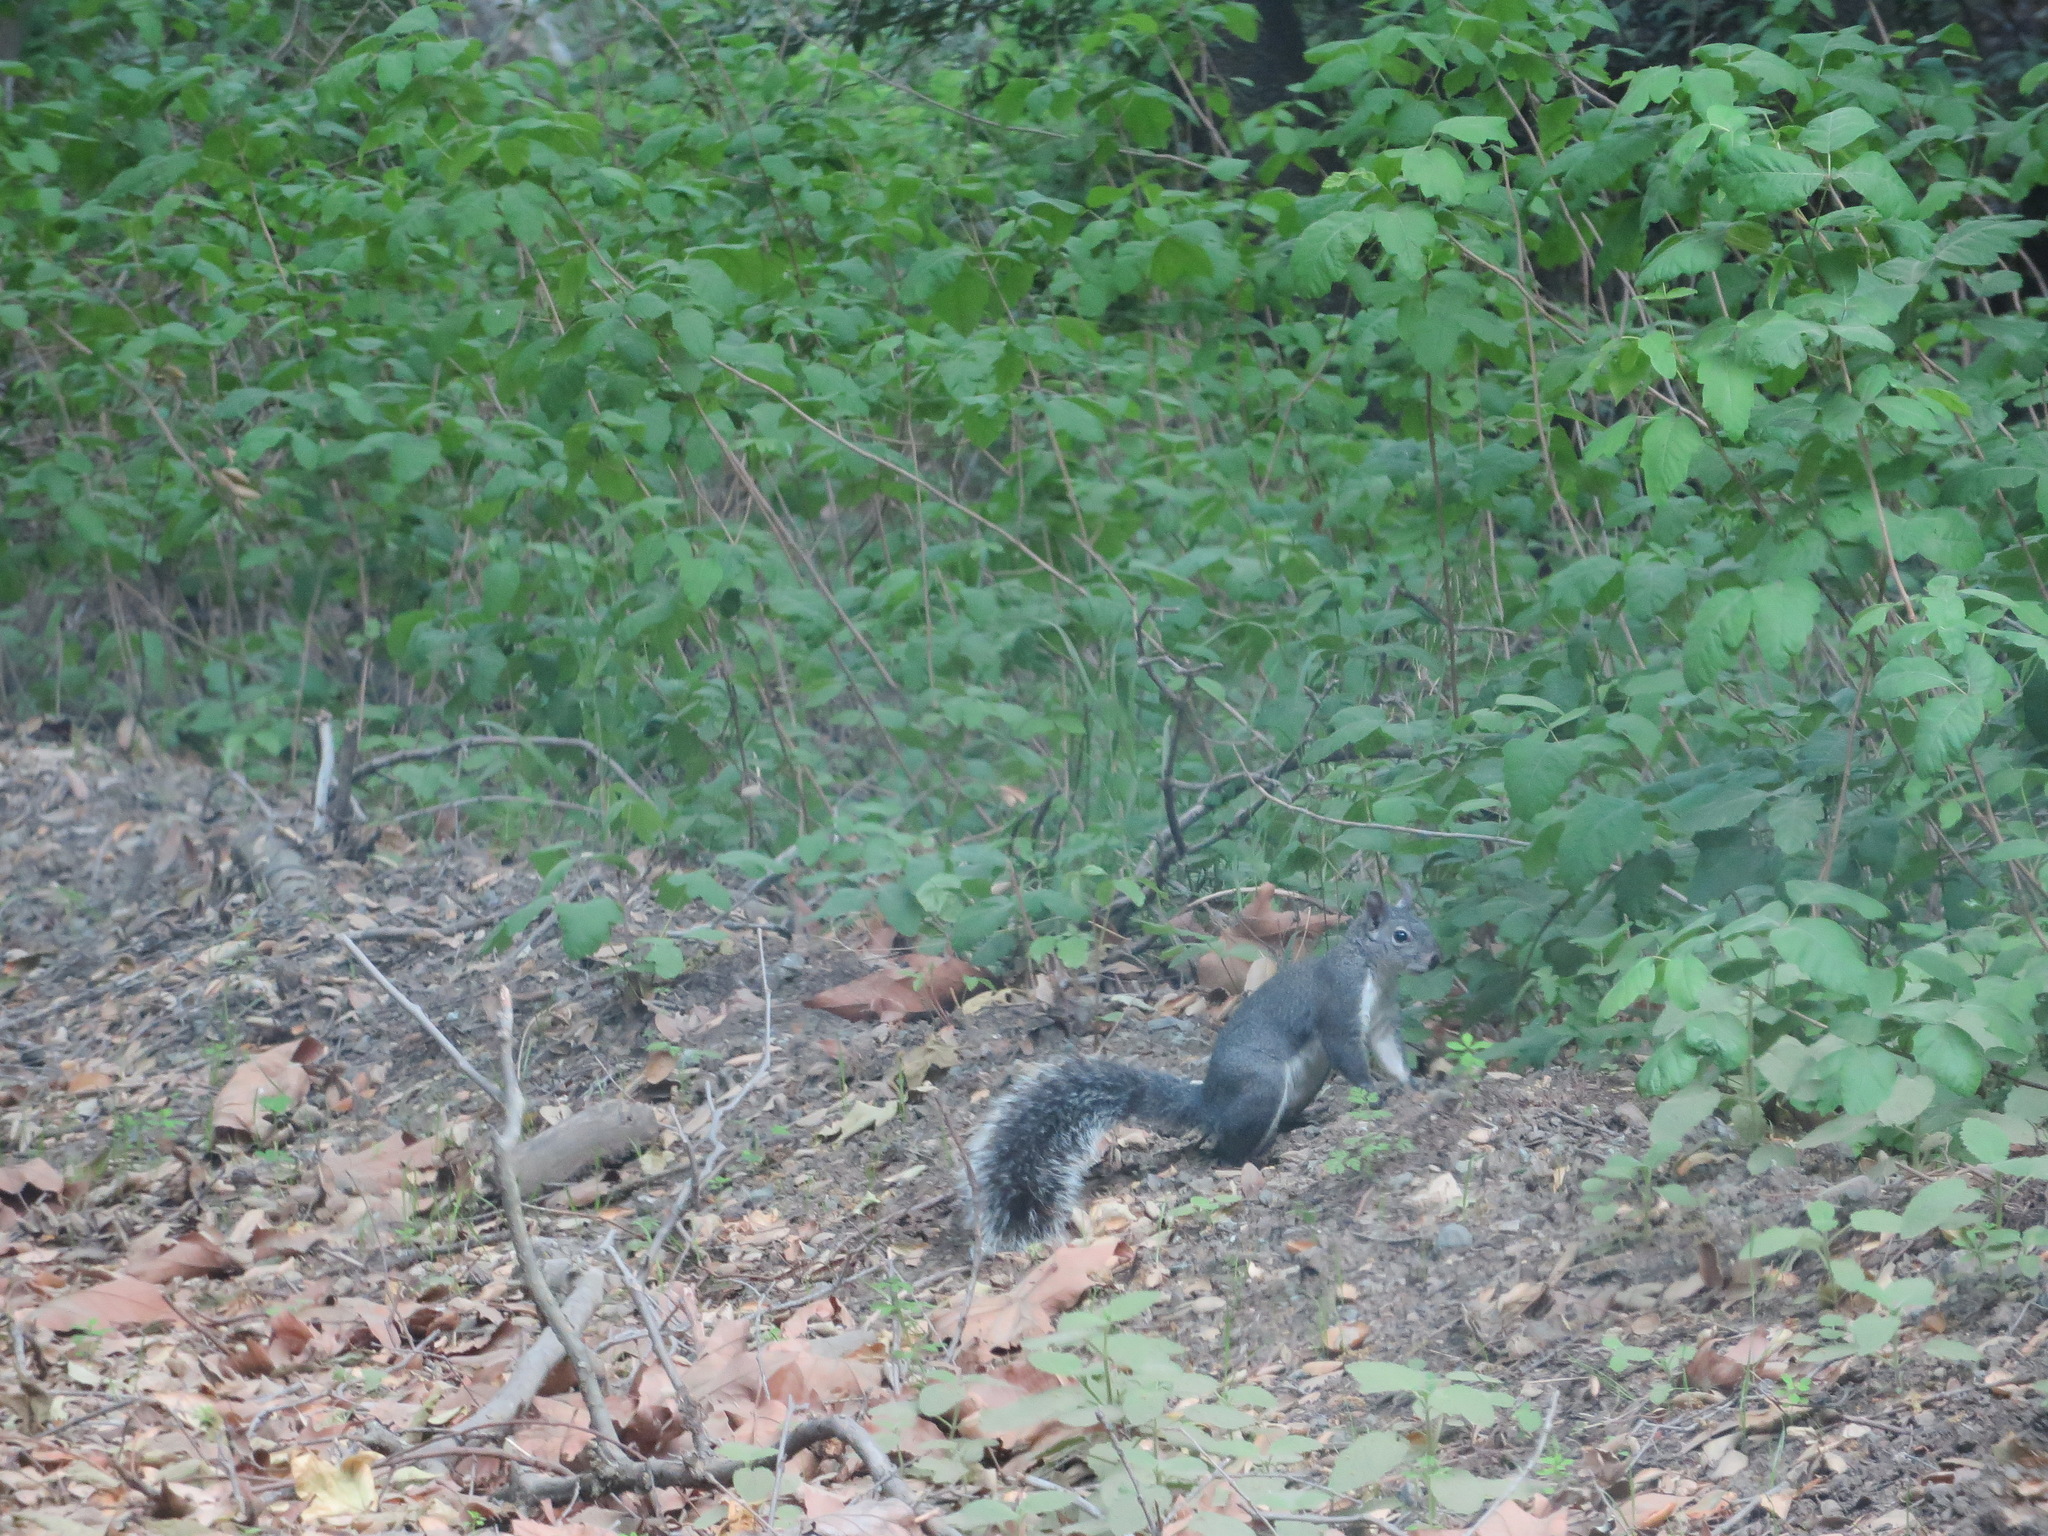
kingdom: Animalia
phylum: Chordata
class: Mammalia
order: Rodentia
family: Sciuridae
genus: Sciurus
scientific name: Sciurus griseus
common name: Western gray squirrel
